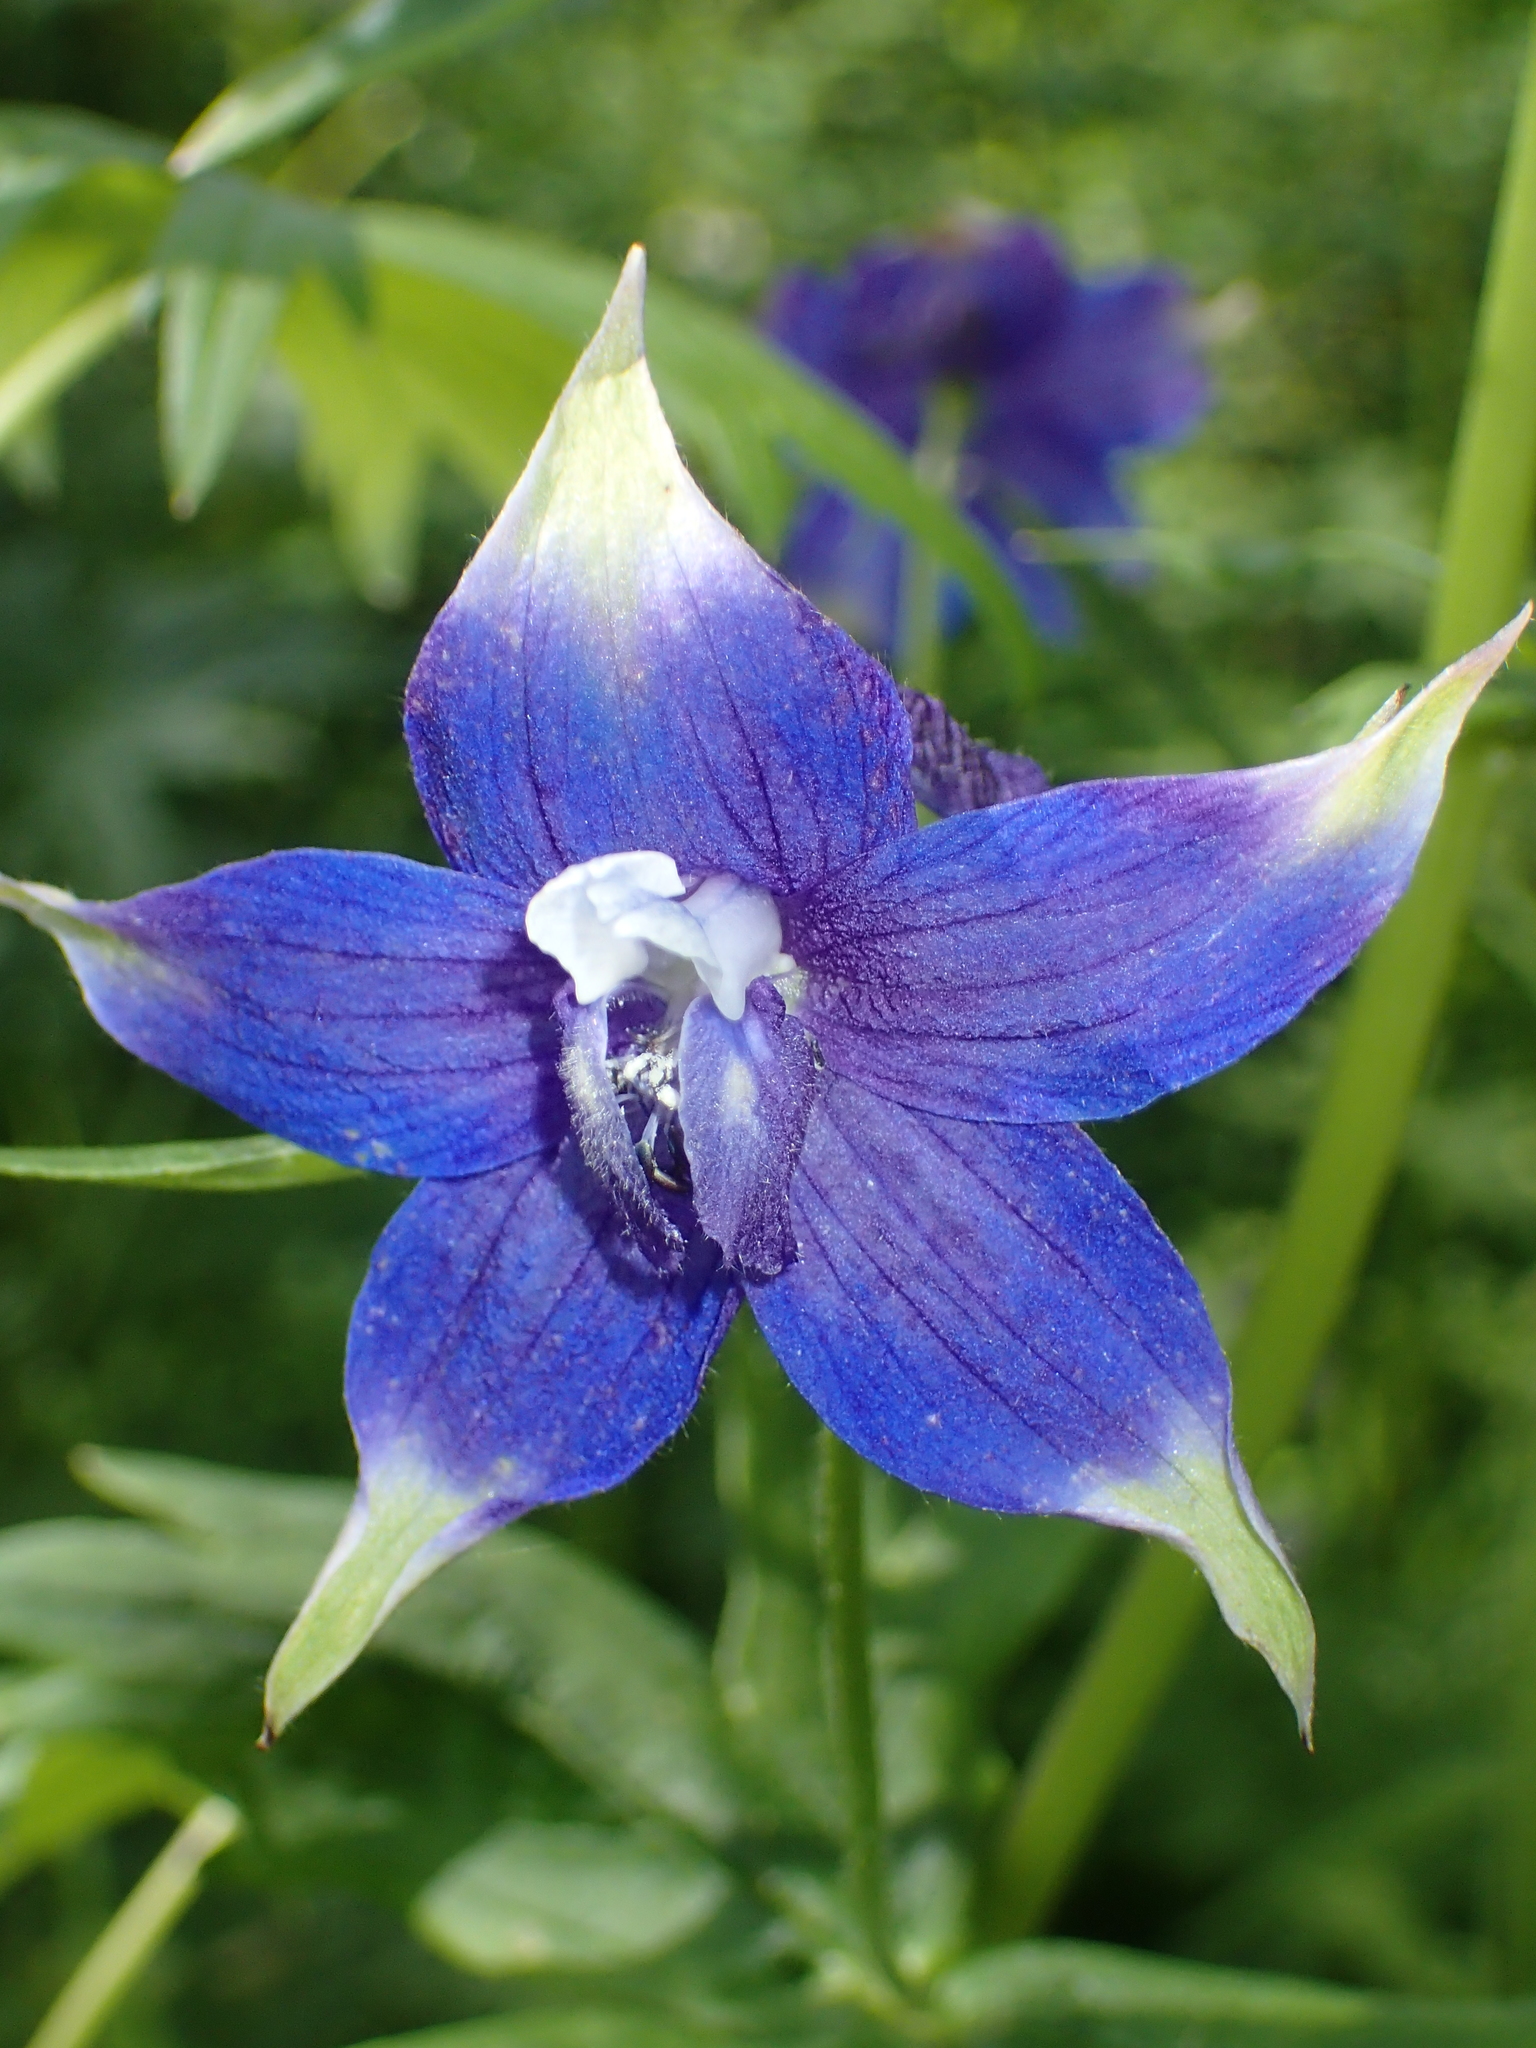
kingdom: Plantae
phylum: Tracheophyta
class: Magnoliopsida
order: Ranunculales
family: Ranunculaceae
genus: Delphinium
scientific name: Delphinium trolliifolium
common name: Cow-poison
